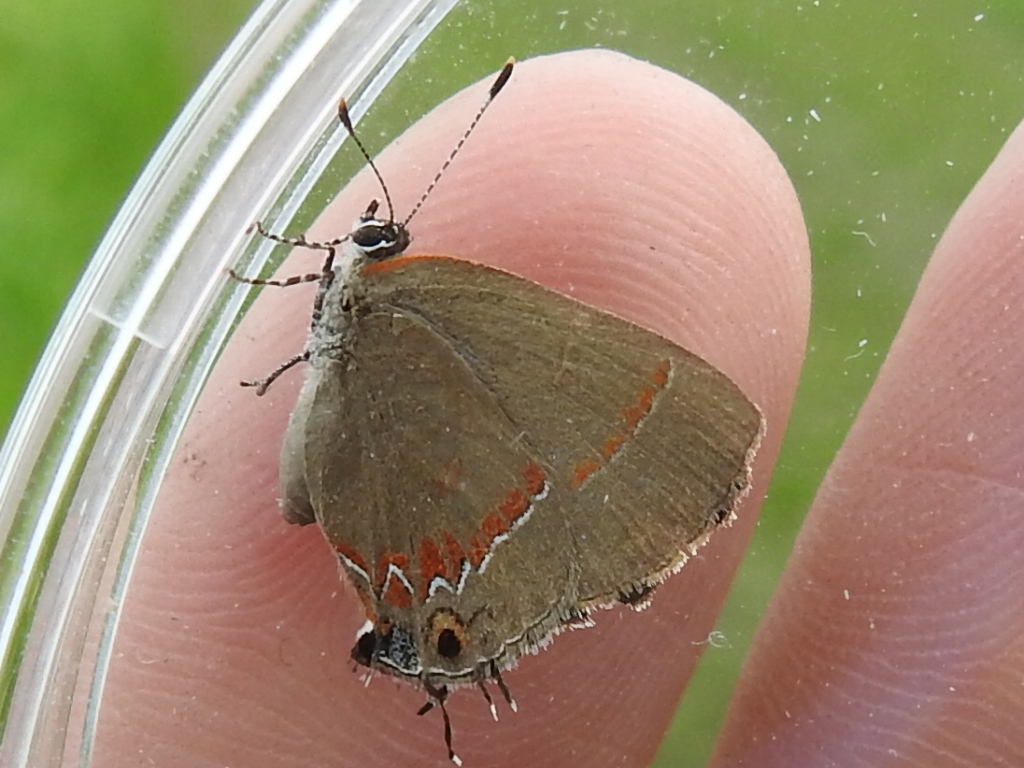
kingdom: Animalia
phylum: Arthropoda
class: Insecta
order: Lepidoptera
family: Lycaenidae
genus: Calycopis
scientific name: Calycopis cecrops
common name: Red-banded hairstreak
